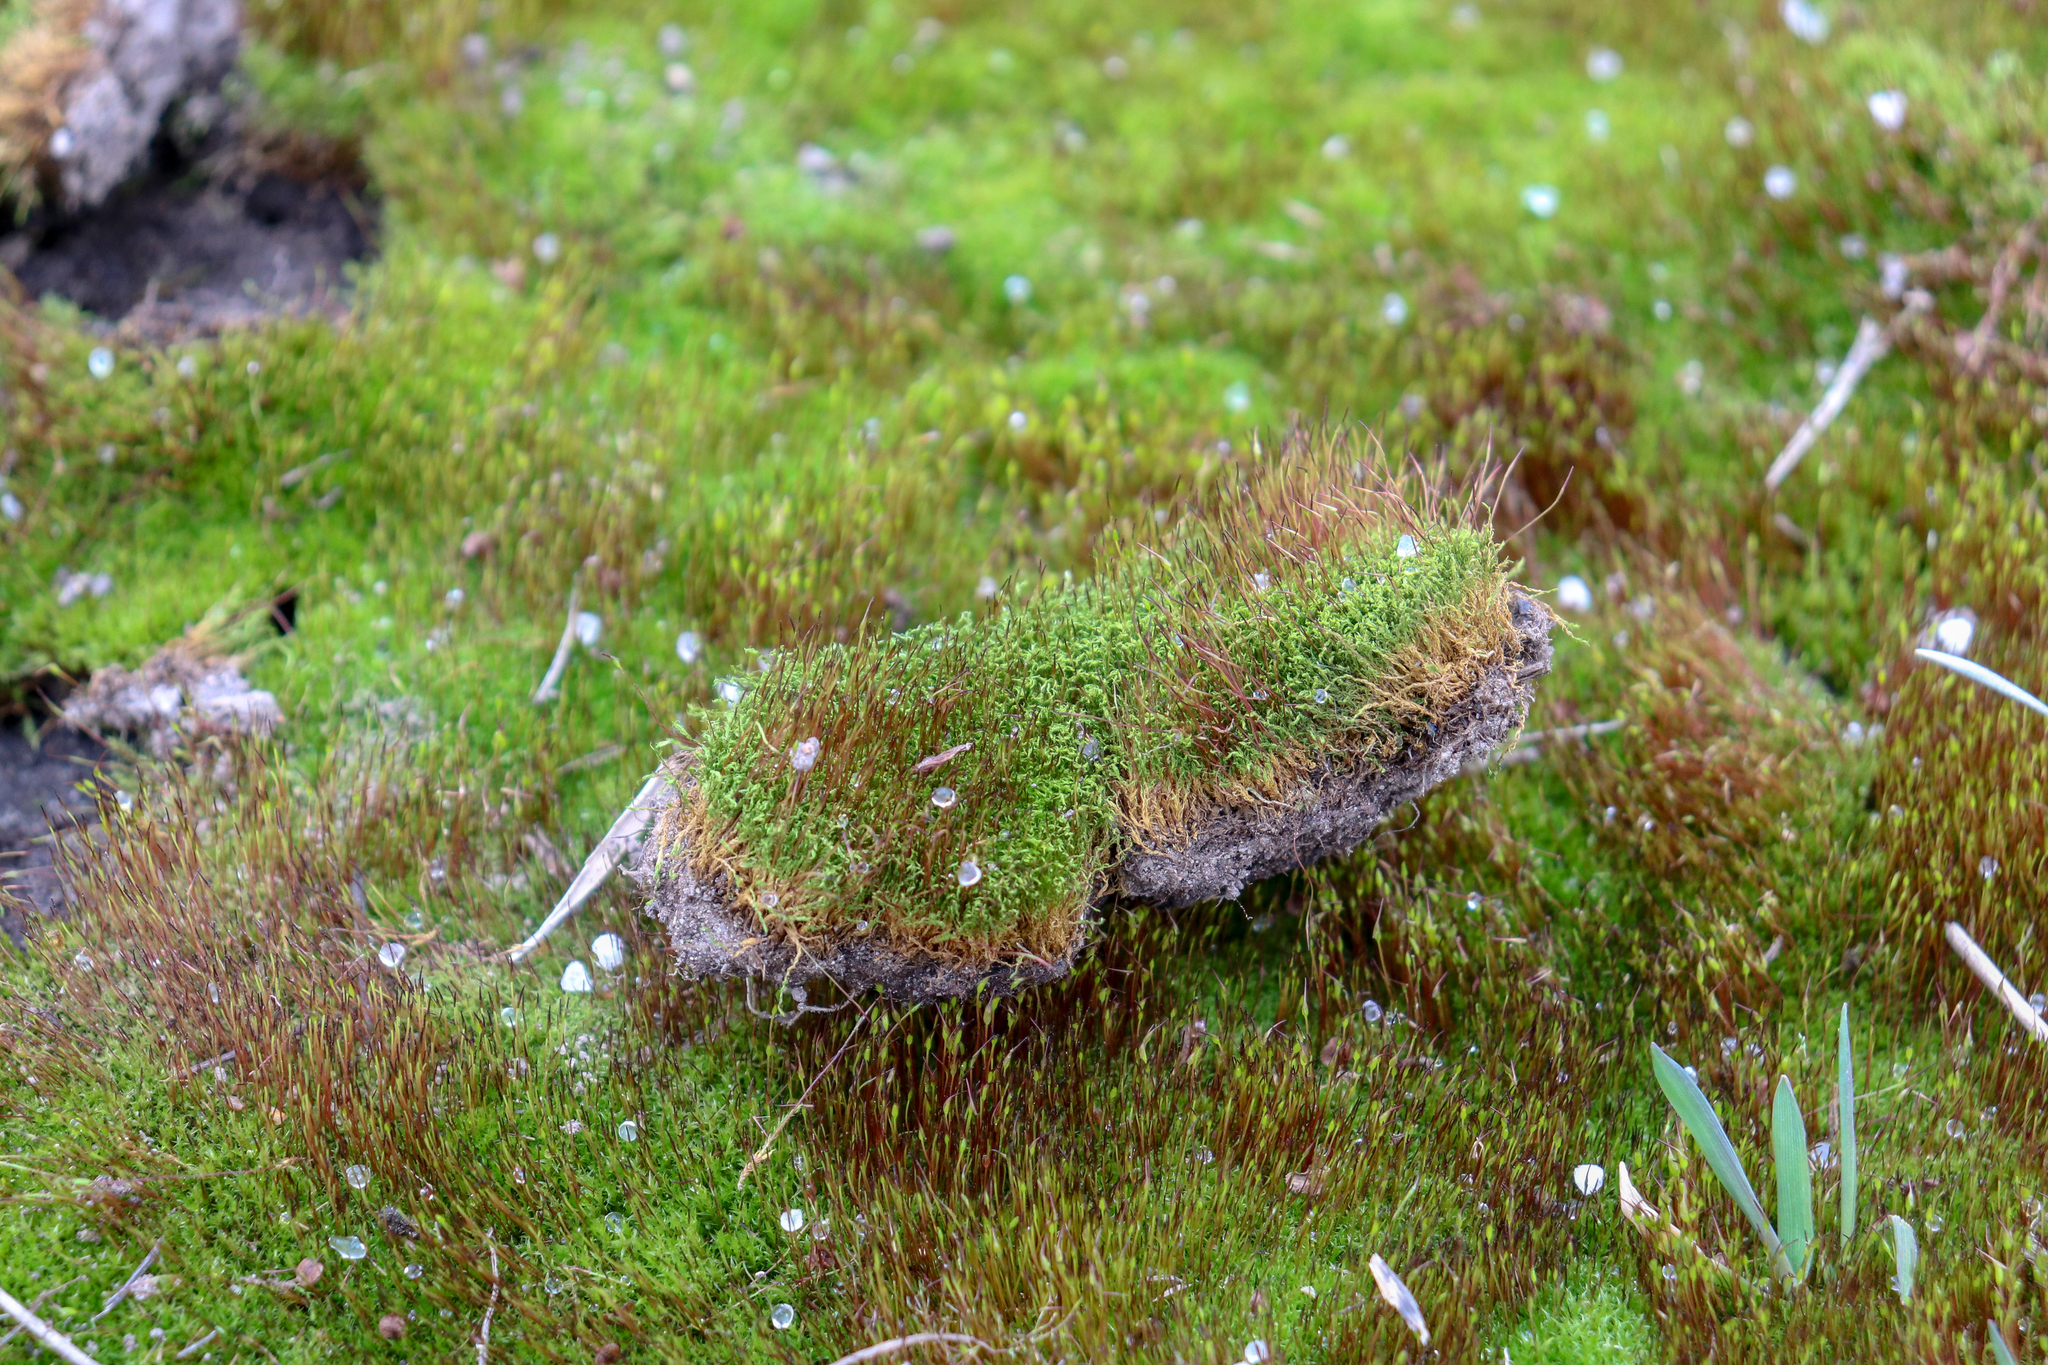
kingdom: Plantae
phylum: Bryophyta
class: Bryopsida
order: Dicranales
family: Ditrichaceae
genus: Ceratodon
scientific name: Ceratodon purpureus
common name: Redshank
